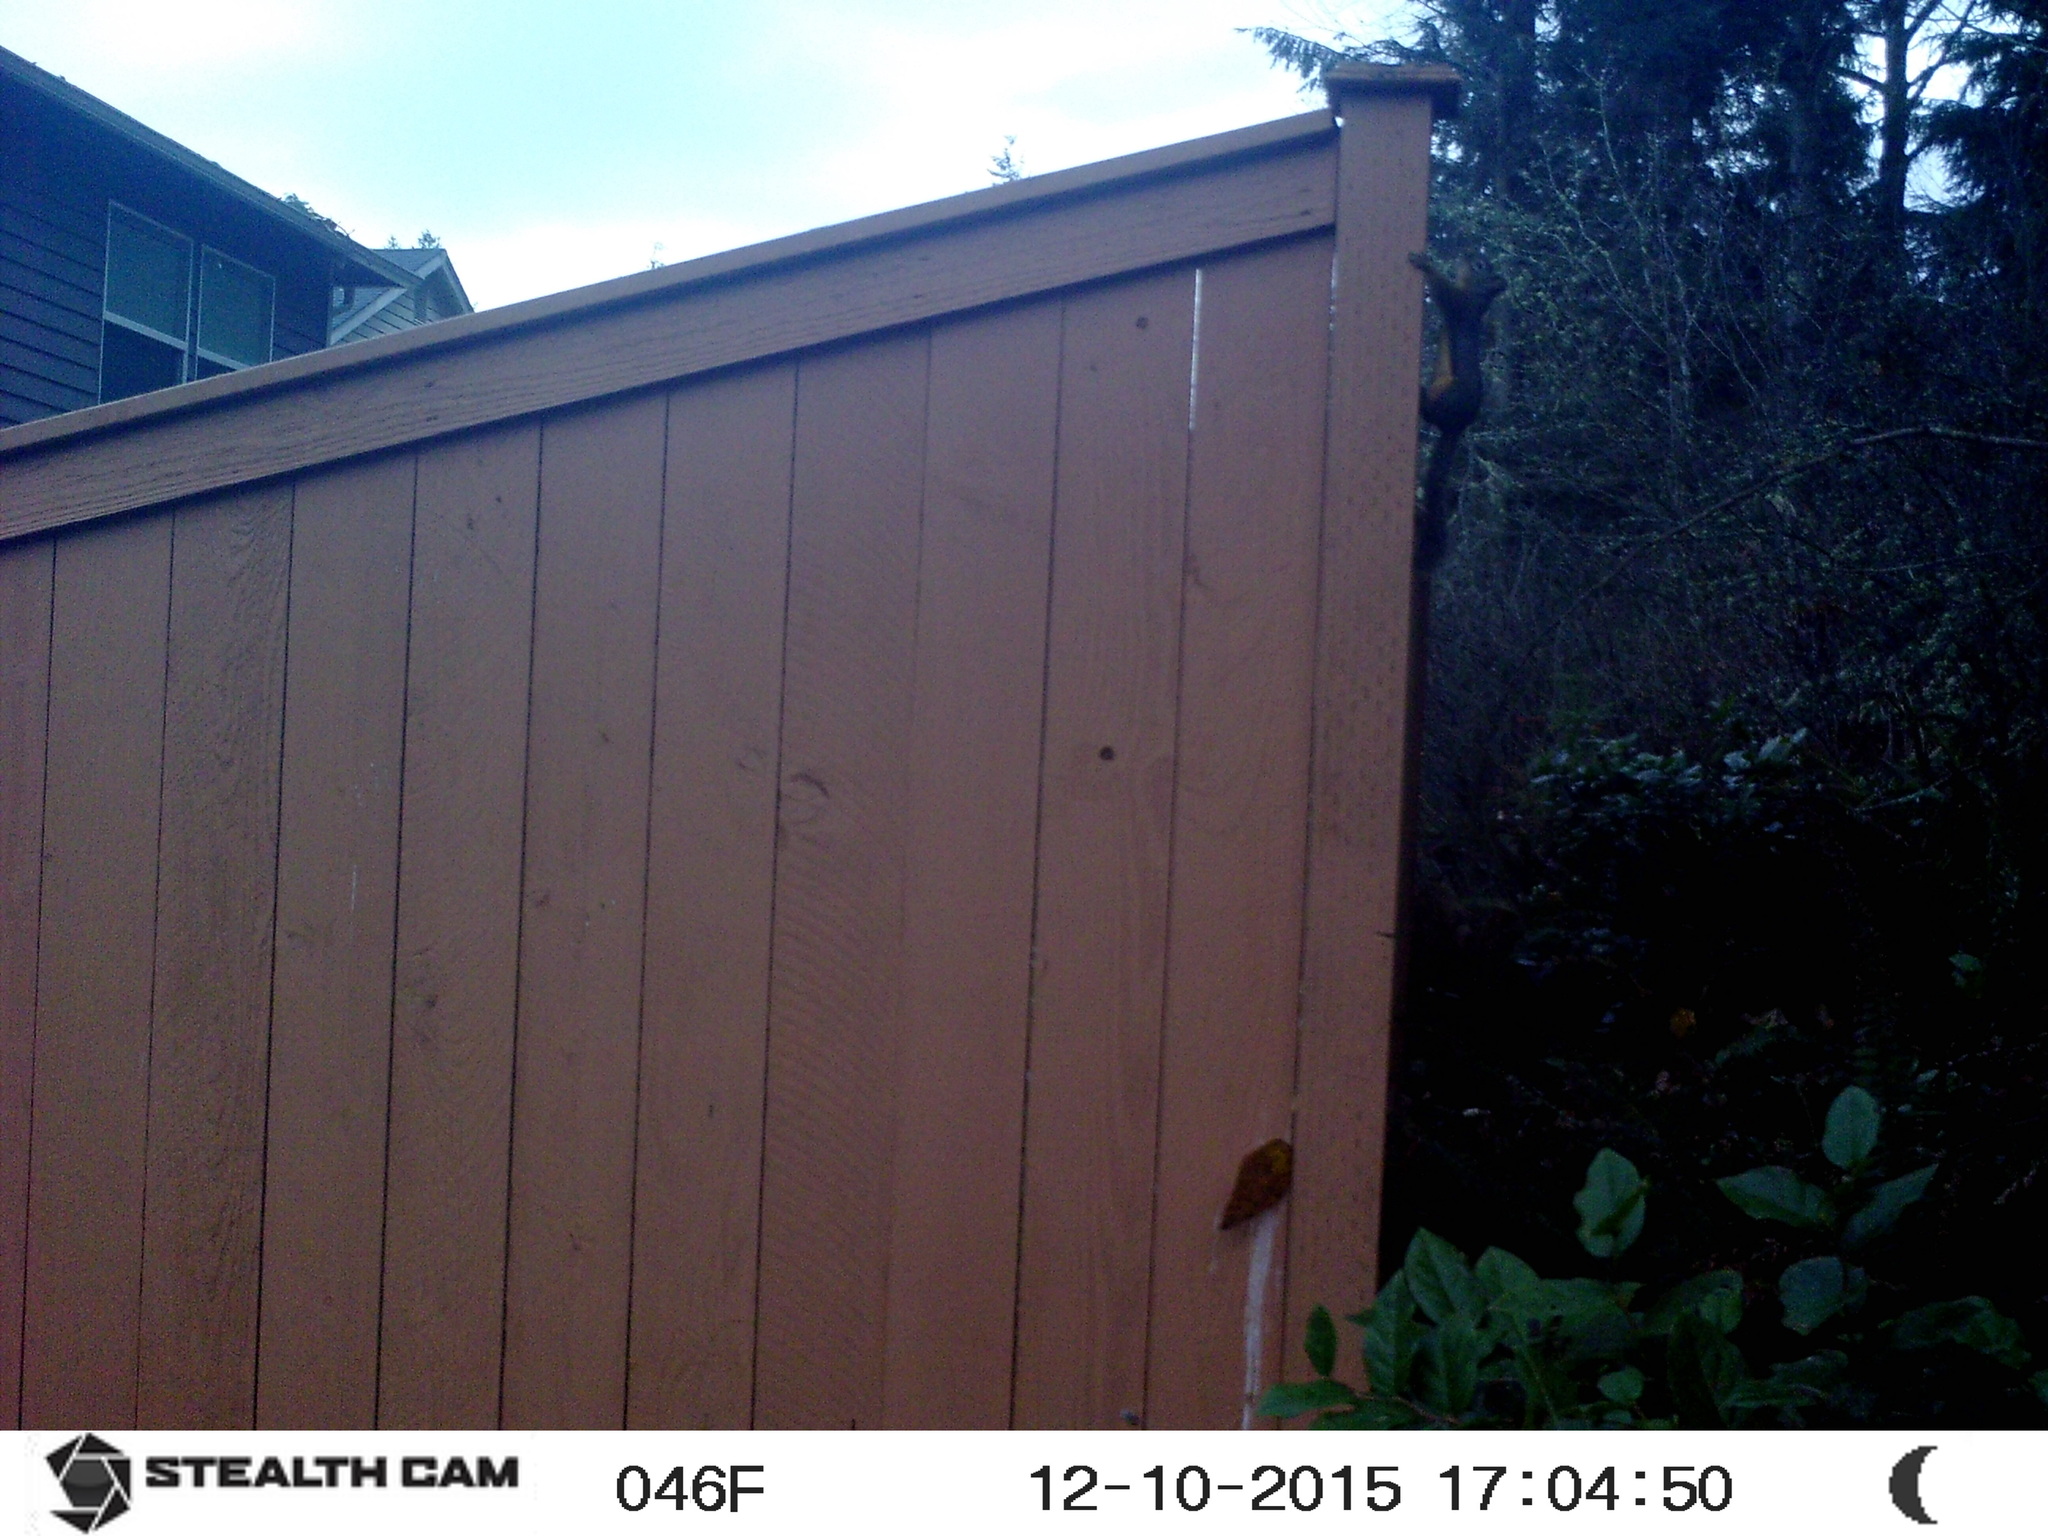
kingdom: Animalia
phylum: Chordata
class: Mammalia
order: Rodentia
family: Sciuridae
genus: Tamiasciurus
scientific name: Tamiasciurus douglasii
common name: Douglas's squirrel
